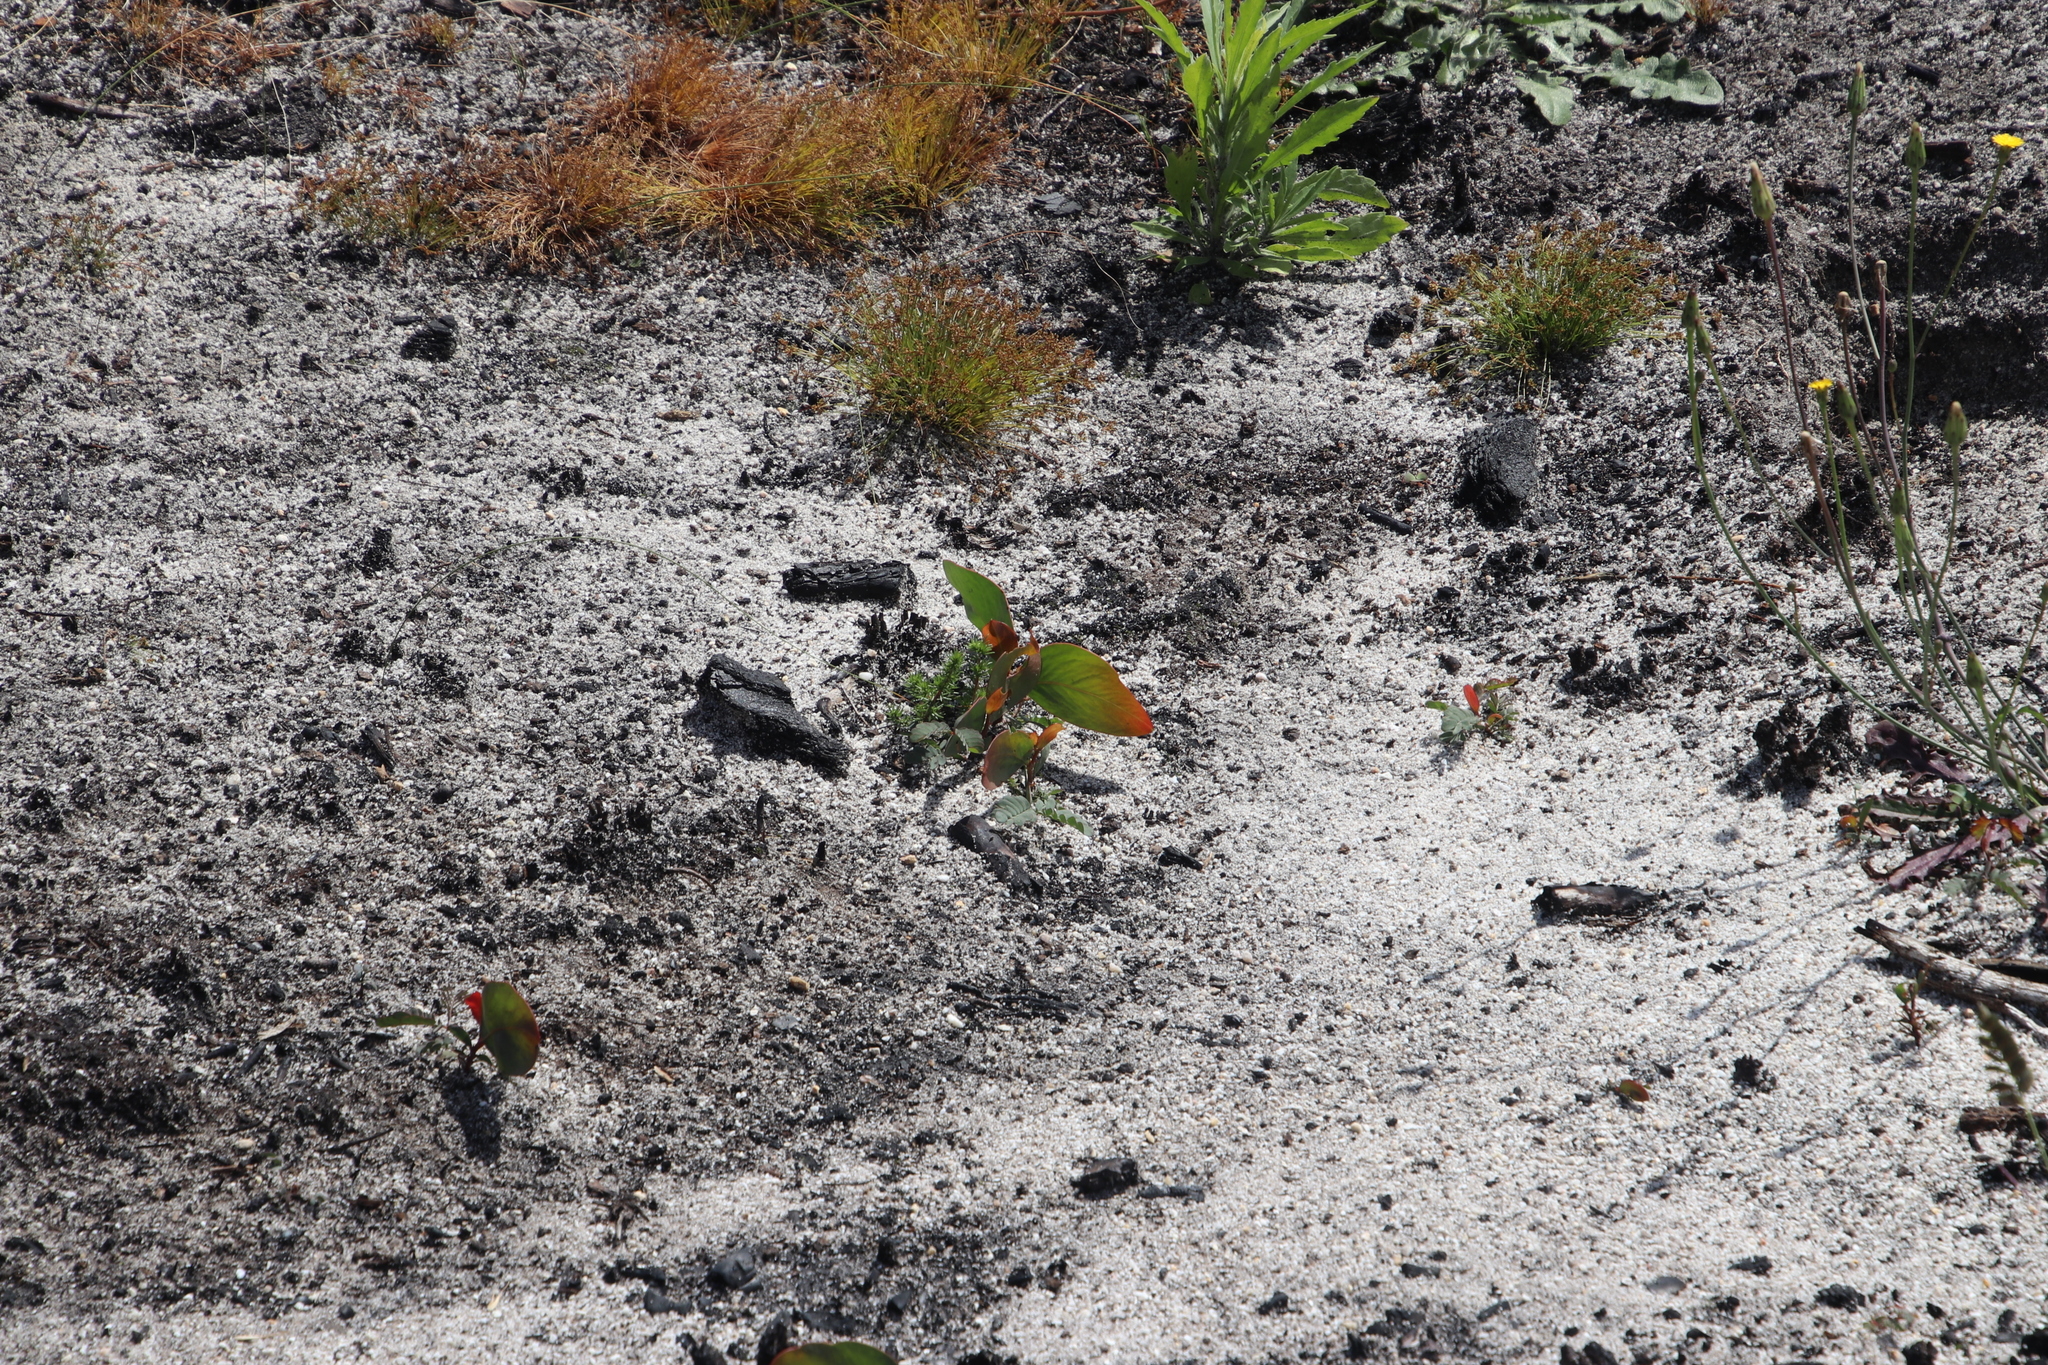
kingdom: Plantae
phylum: Tracheophyta
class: Magnoliopsida
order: Fabales
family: Fabaceae
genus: Acacia
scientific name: Acacia pycnantha
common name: Golden wattle
